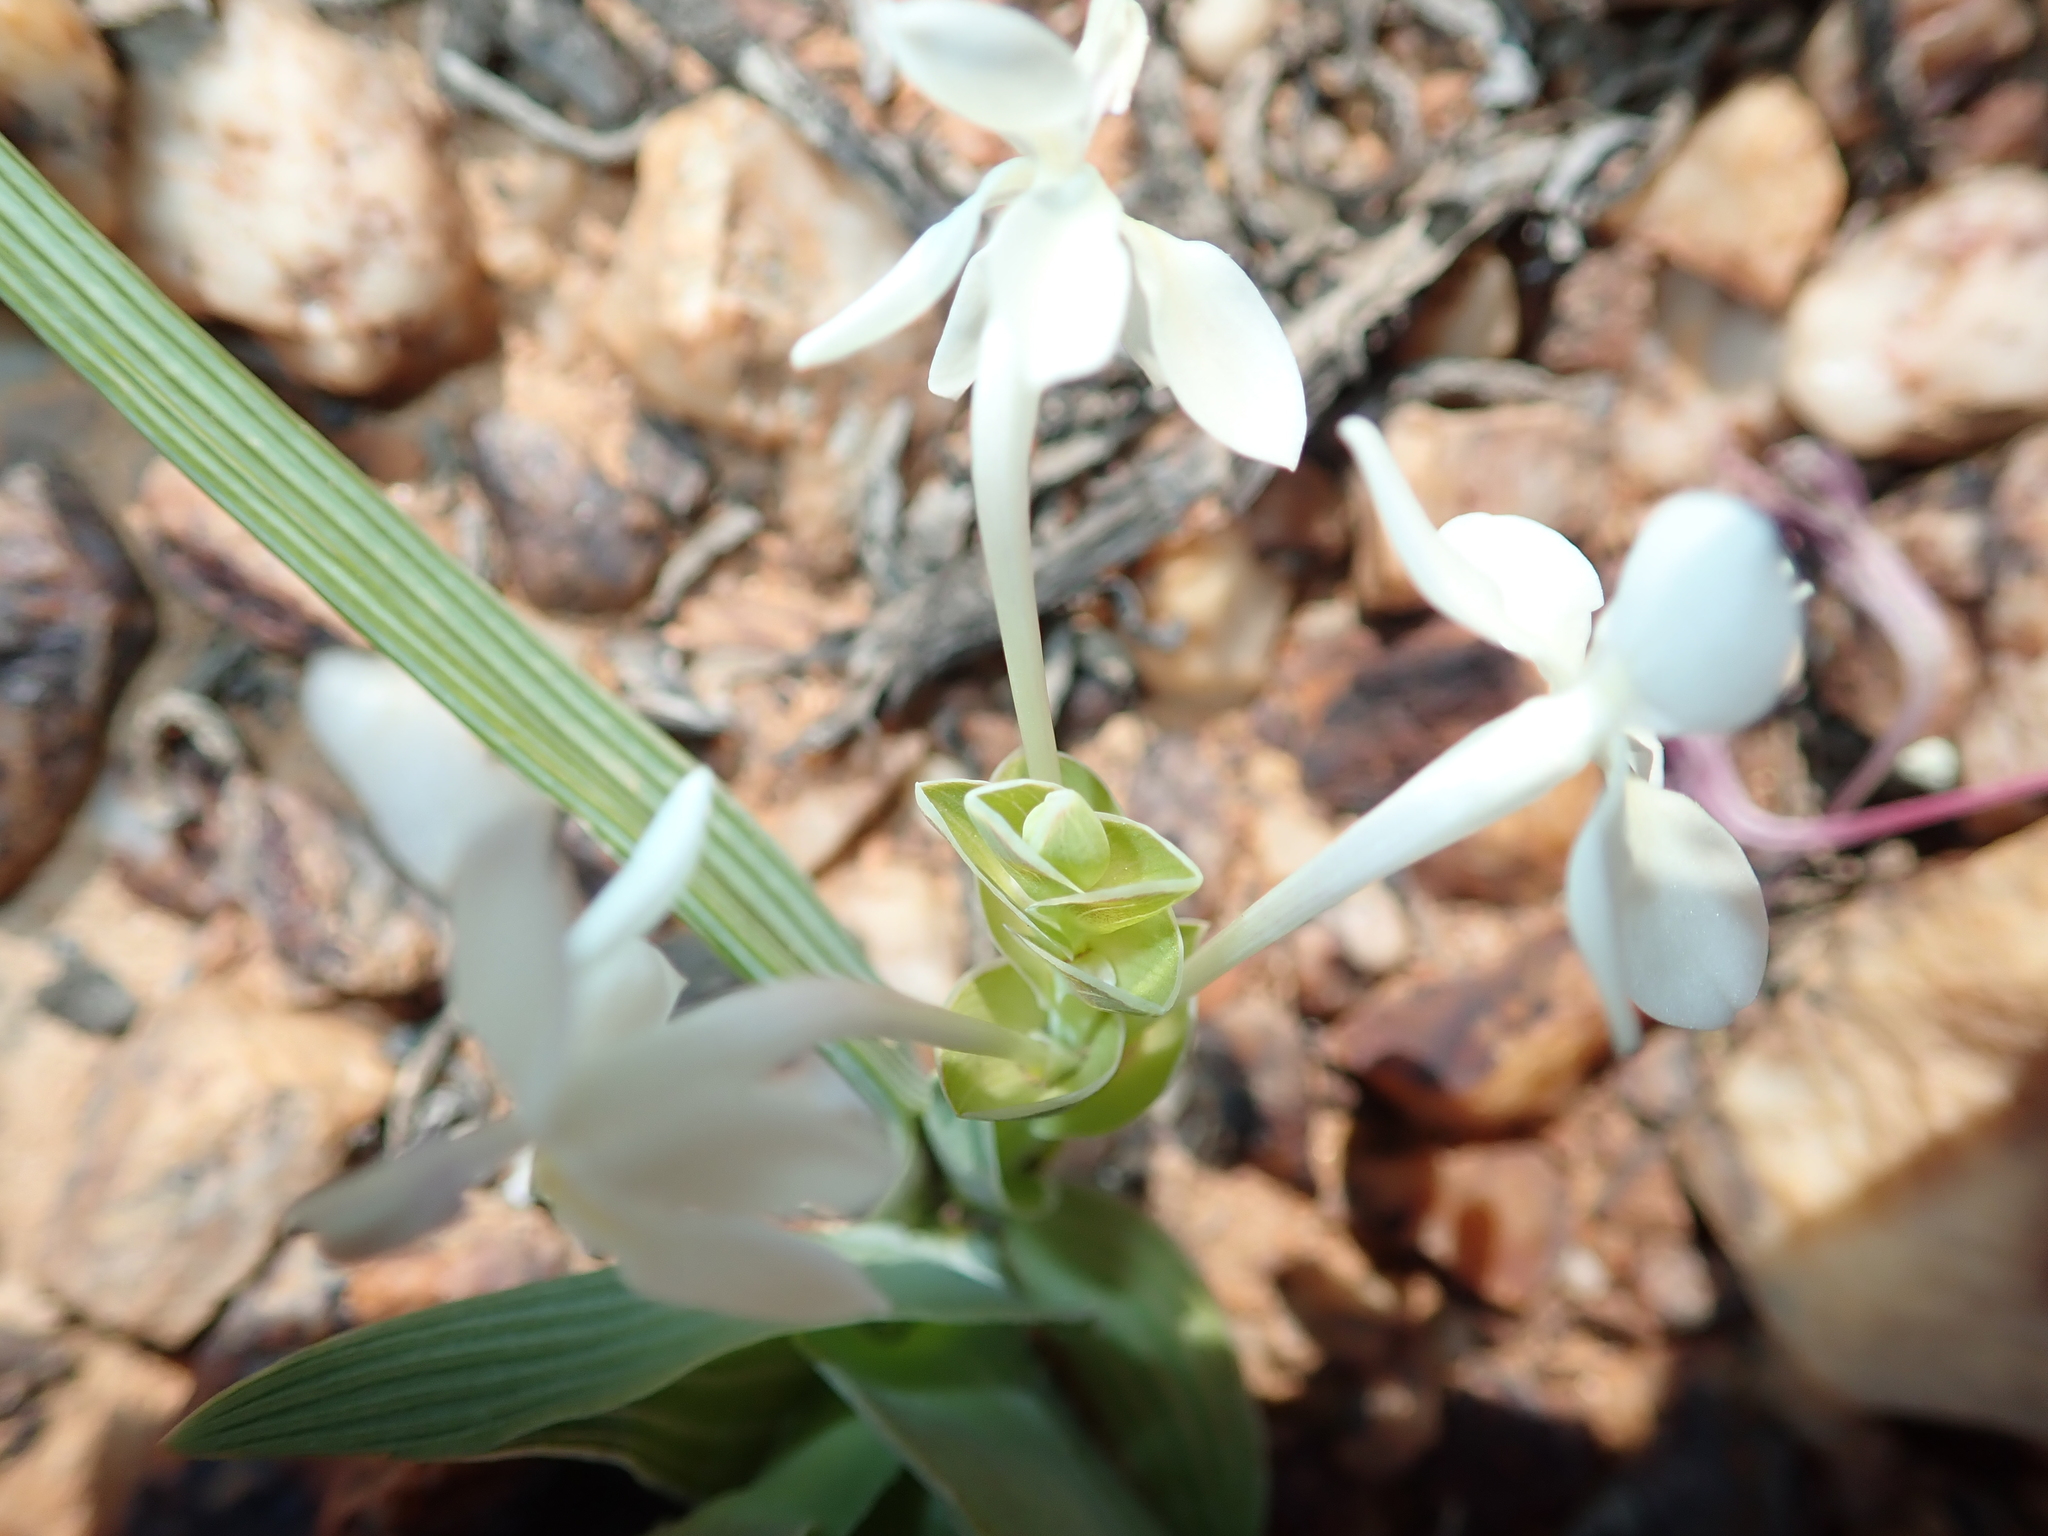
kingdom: Plantae
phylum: Tracheophyta
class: Liliopsida
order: Asparagales
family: Iridaceae
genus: Lapeirousia
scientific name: Lapeirousia pyramidalis
